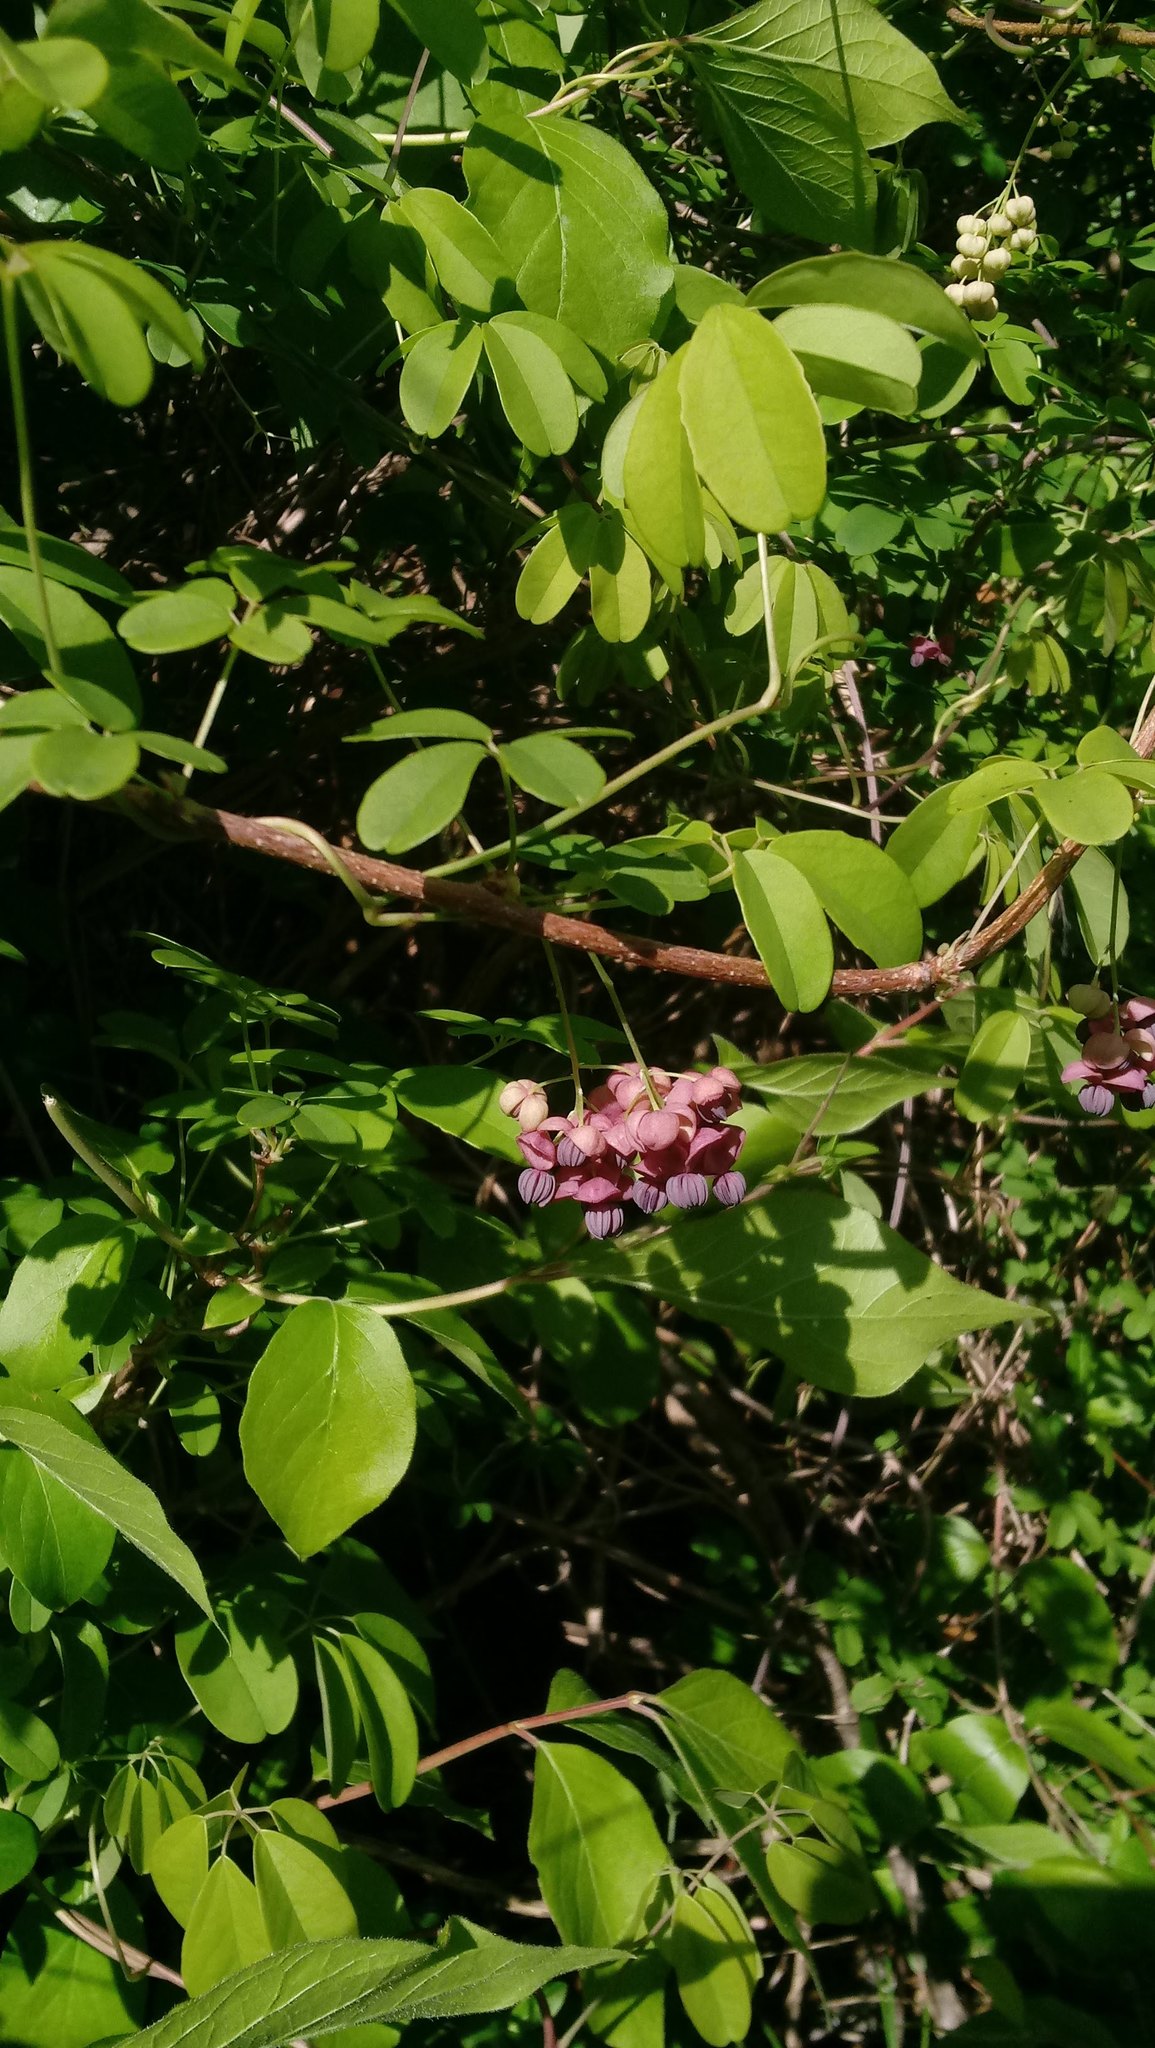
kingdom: Plantae
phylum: Tracheophyta
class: Magnoliopsida
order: Ranunculales
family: Lardizabalaceae
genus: Akebia
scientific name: Akebia quinata
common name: Five-leaf akebia
